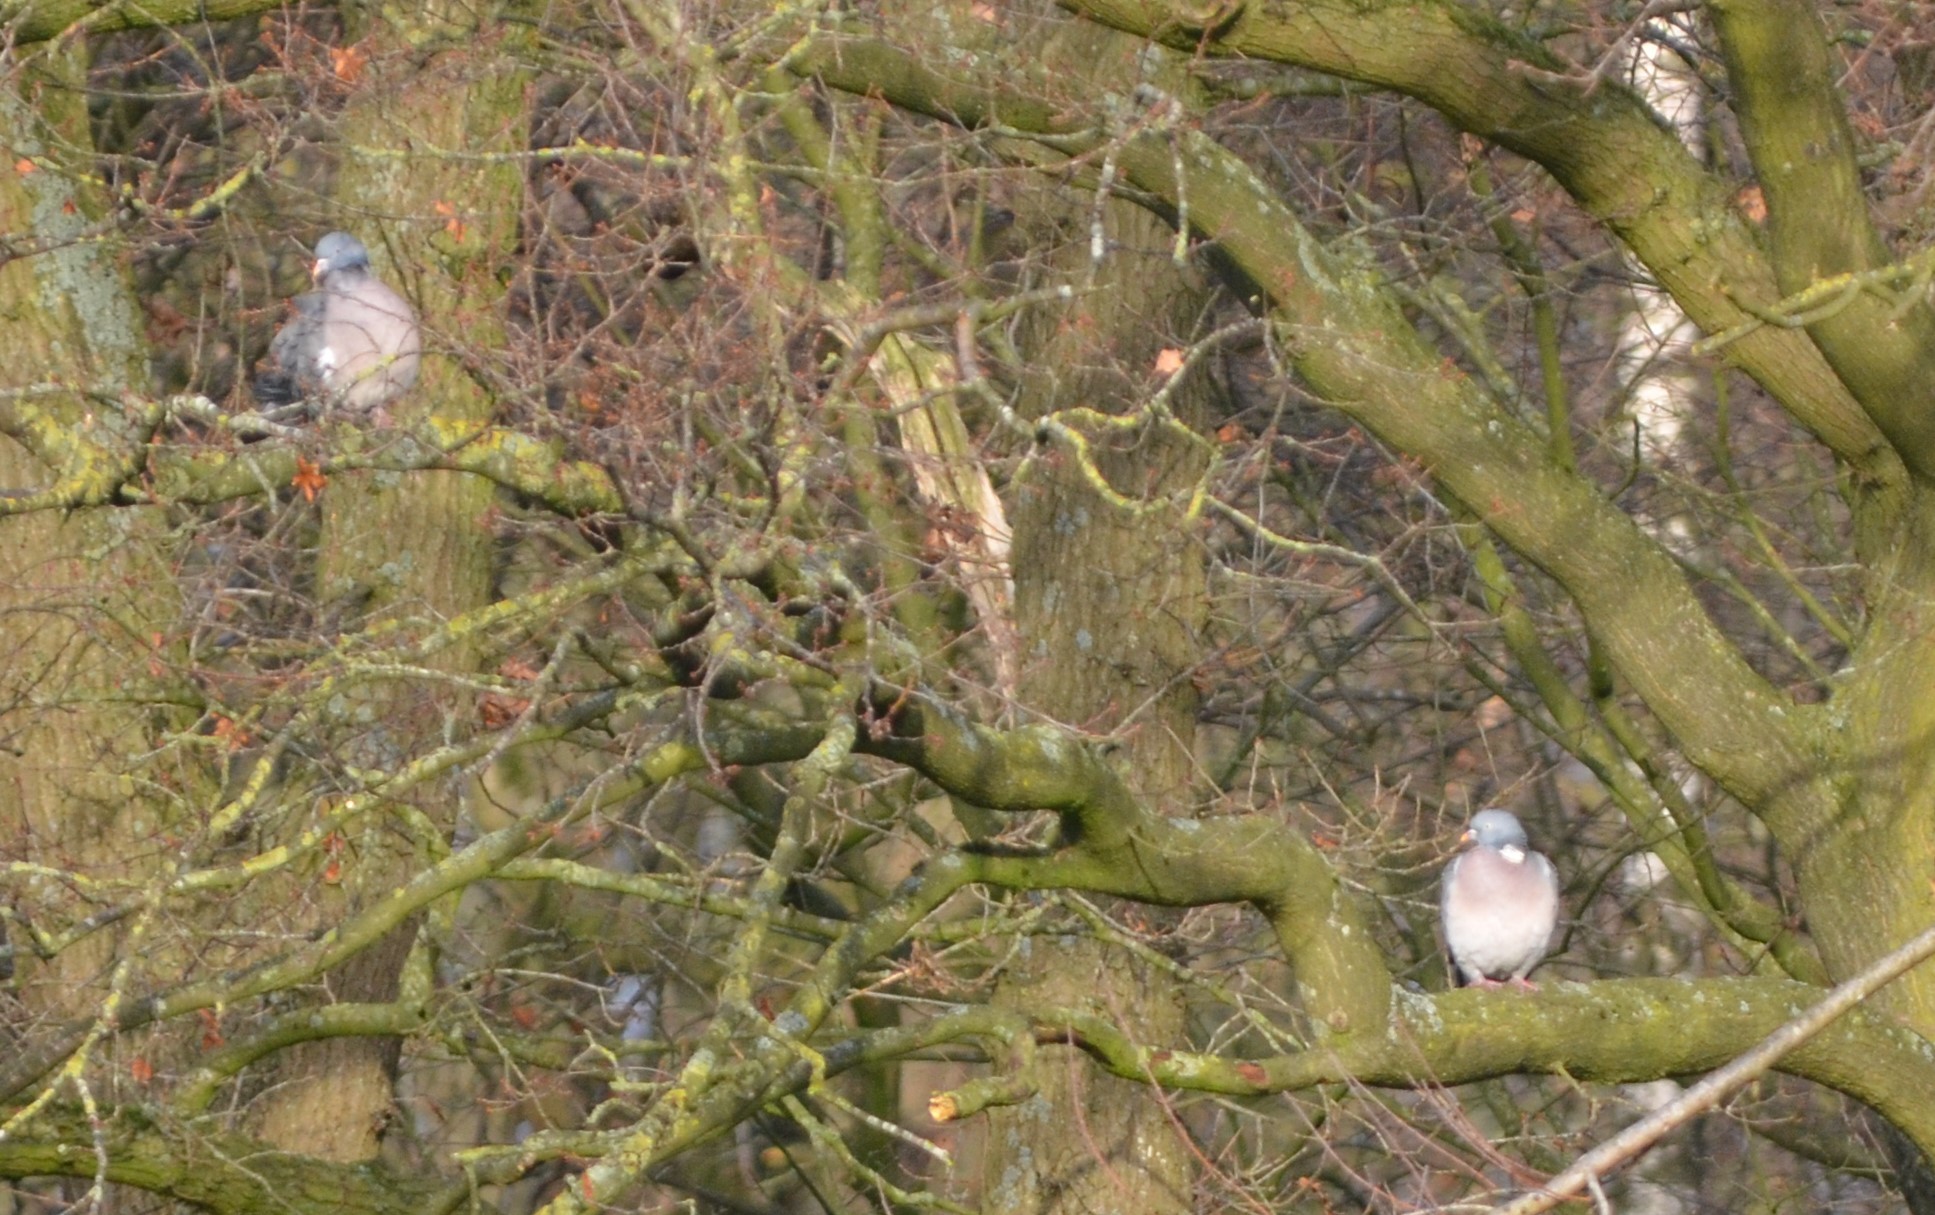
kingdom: Animalia
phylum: Chordata
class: Aves
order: Columbiformes
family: Columbidae
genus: Columba
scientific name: Columba palumbus
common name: Common wood pigeon
